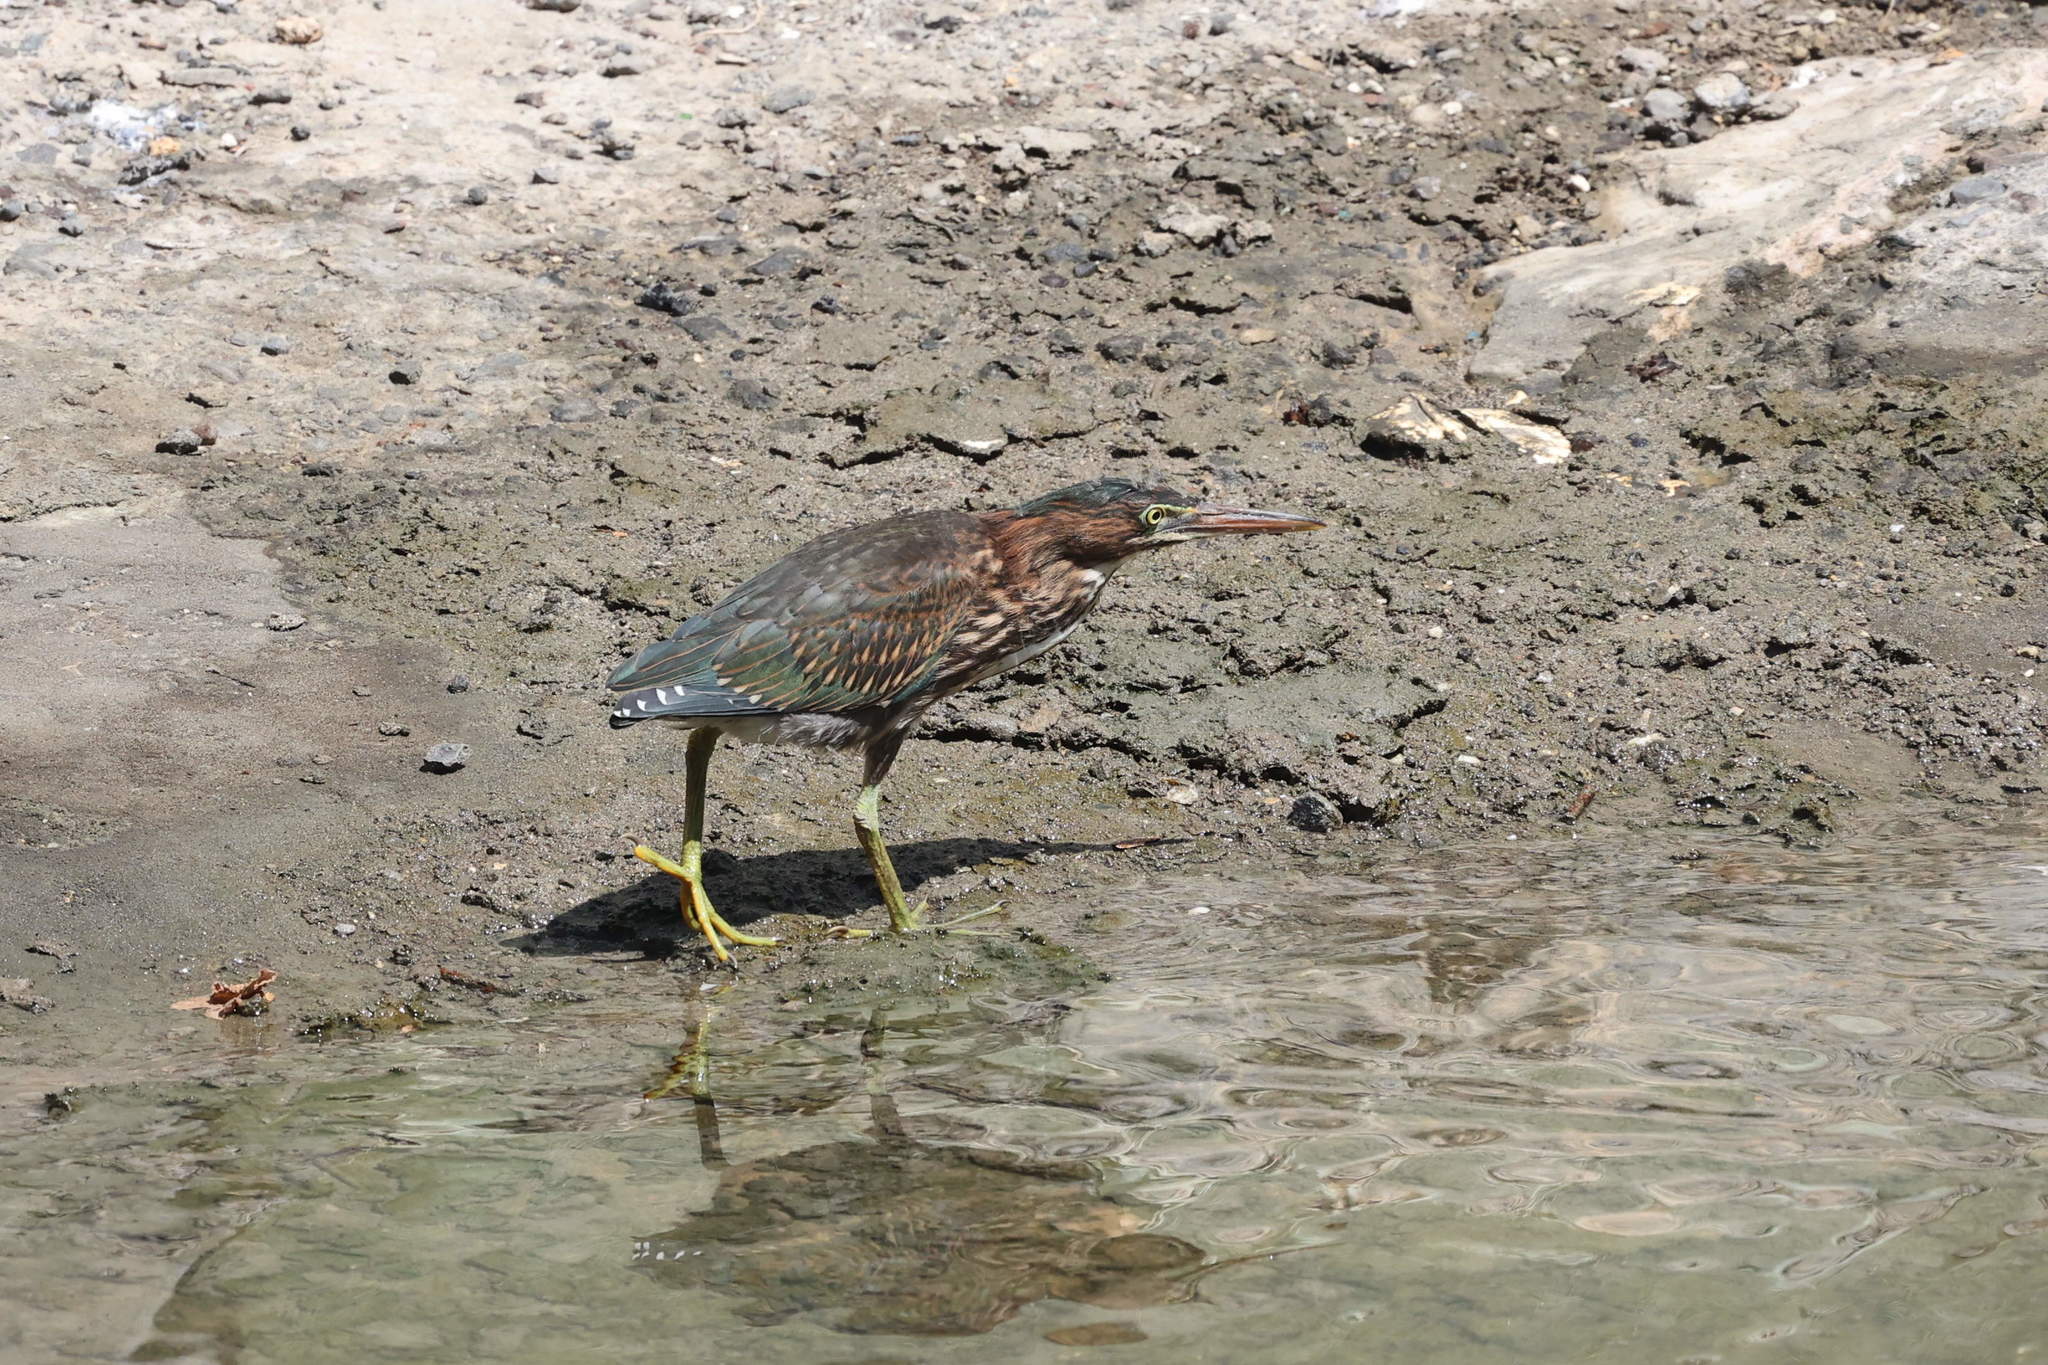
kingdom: Animalia
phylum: Chordata
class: Aves
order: Pelecaniformes
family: Ardeidae
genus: Butorides
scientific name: Butorides virescens
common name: Green heron
